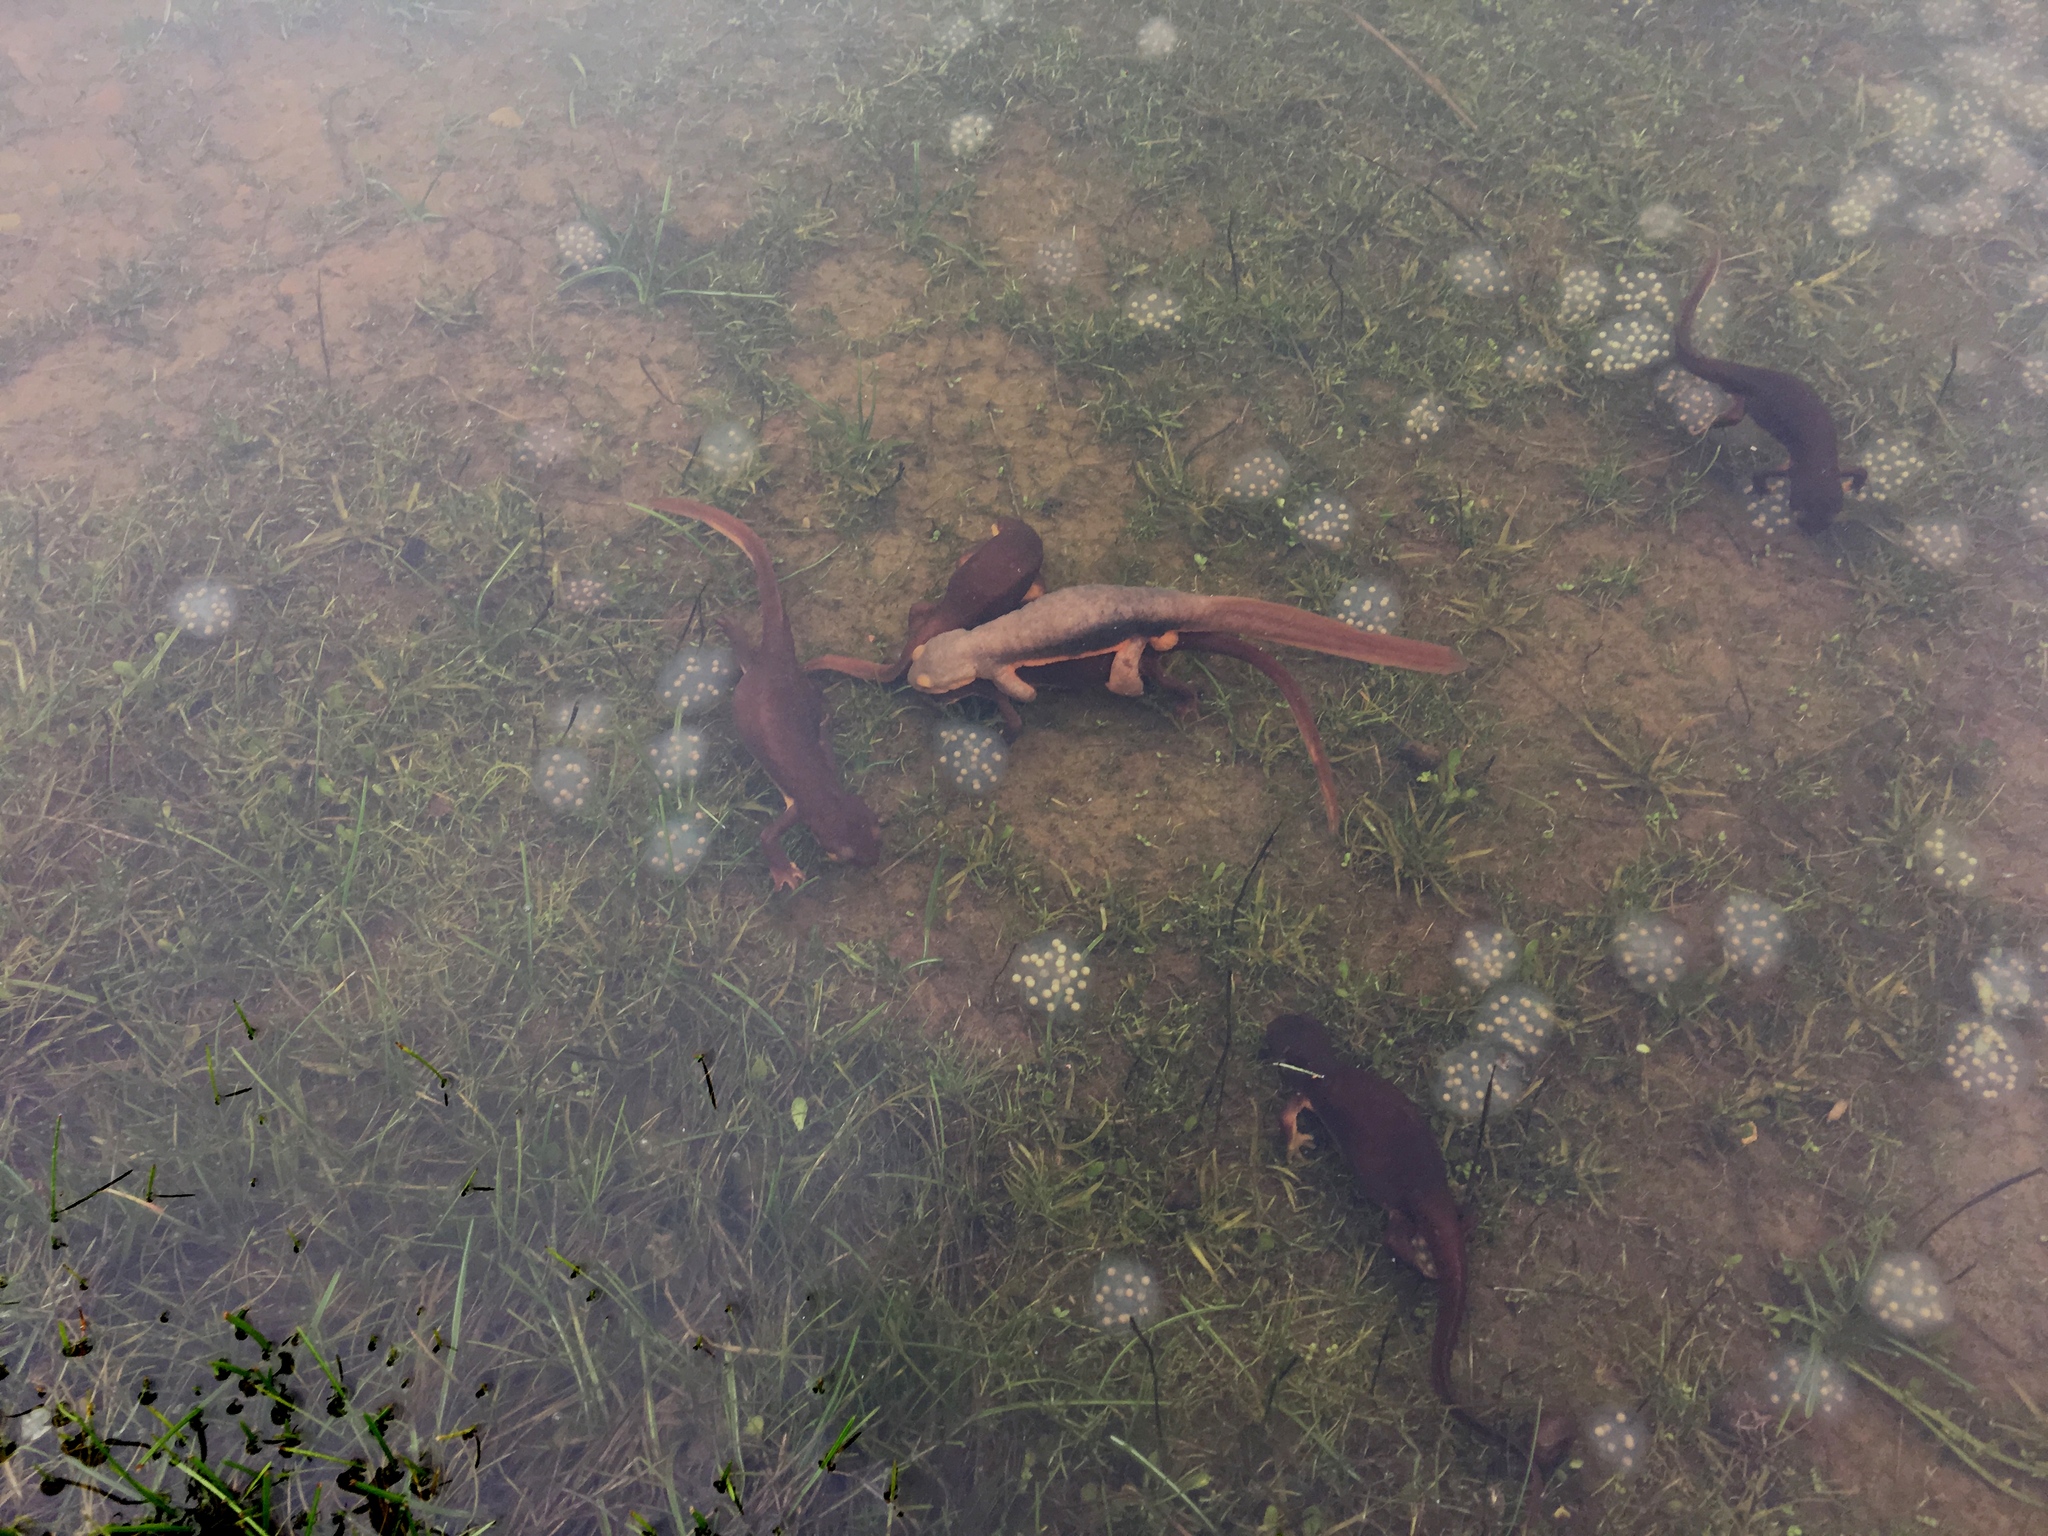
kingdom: Animalia
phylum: Chordata
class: Amphibia
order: Caudata
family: Salamandridae
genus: Taricha
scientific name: Taricha torosa
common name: California newt
